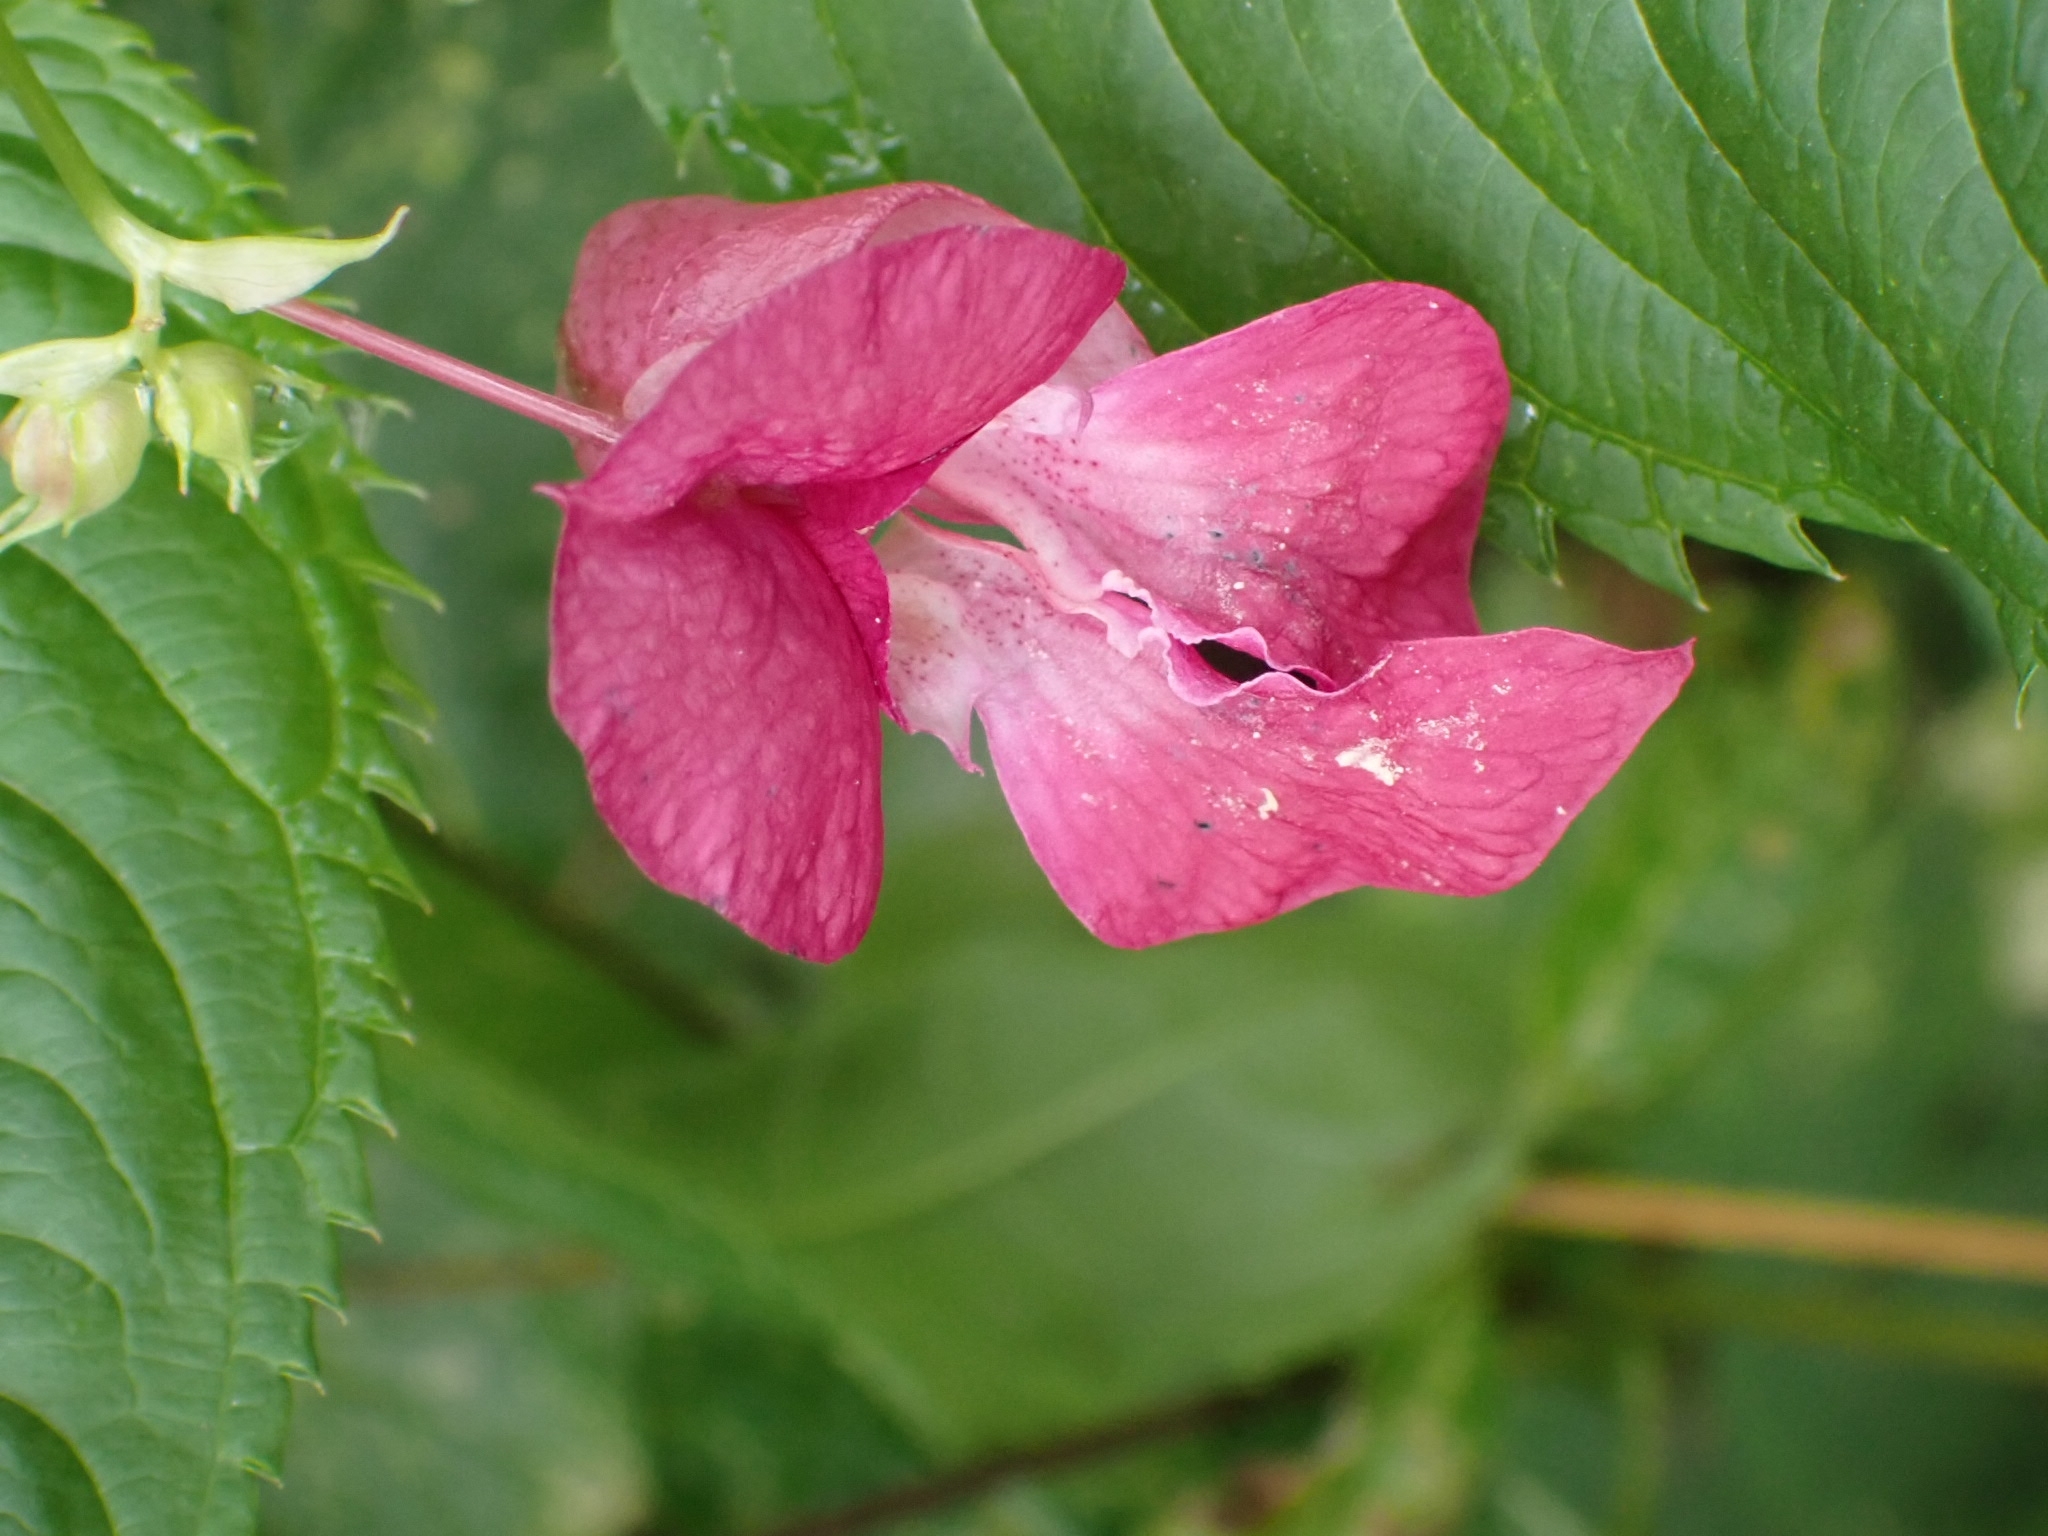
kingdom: Plantae
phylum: Tracheophyta
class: Magnoliopsida
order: Ericales
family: Balsaminaceae
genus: Impatiens
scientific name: Impatiens glandulifera
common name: Himalayan balsam
